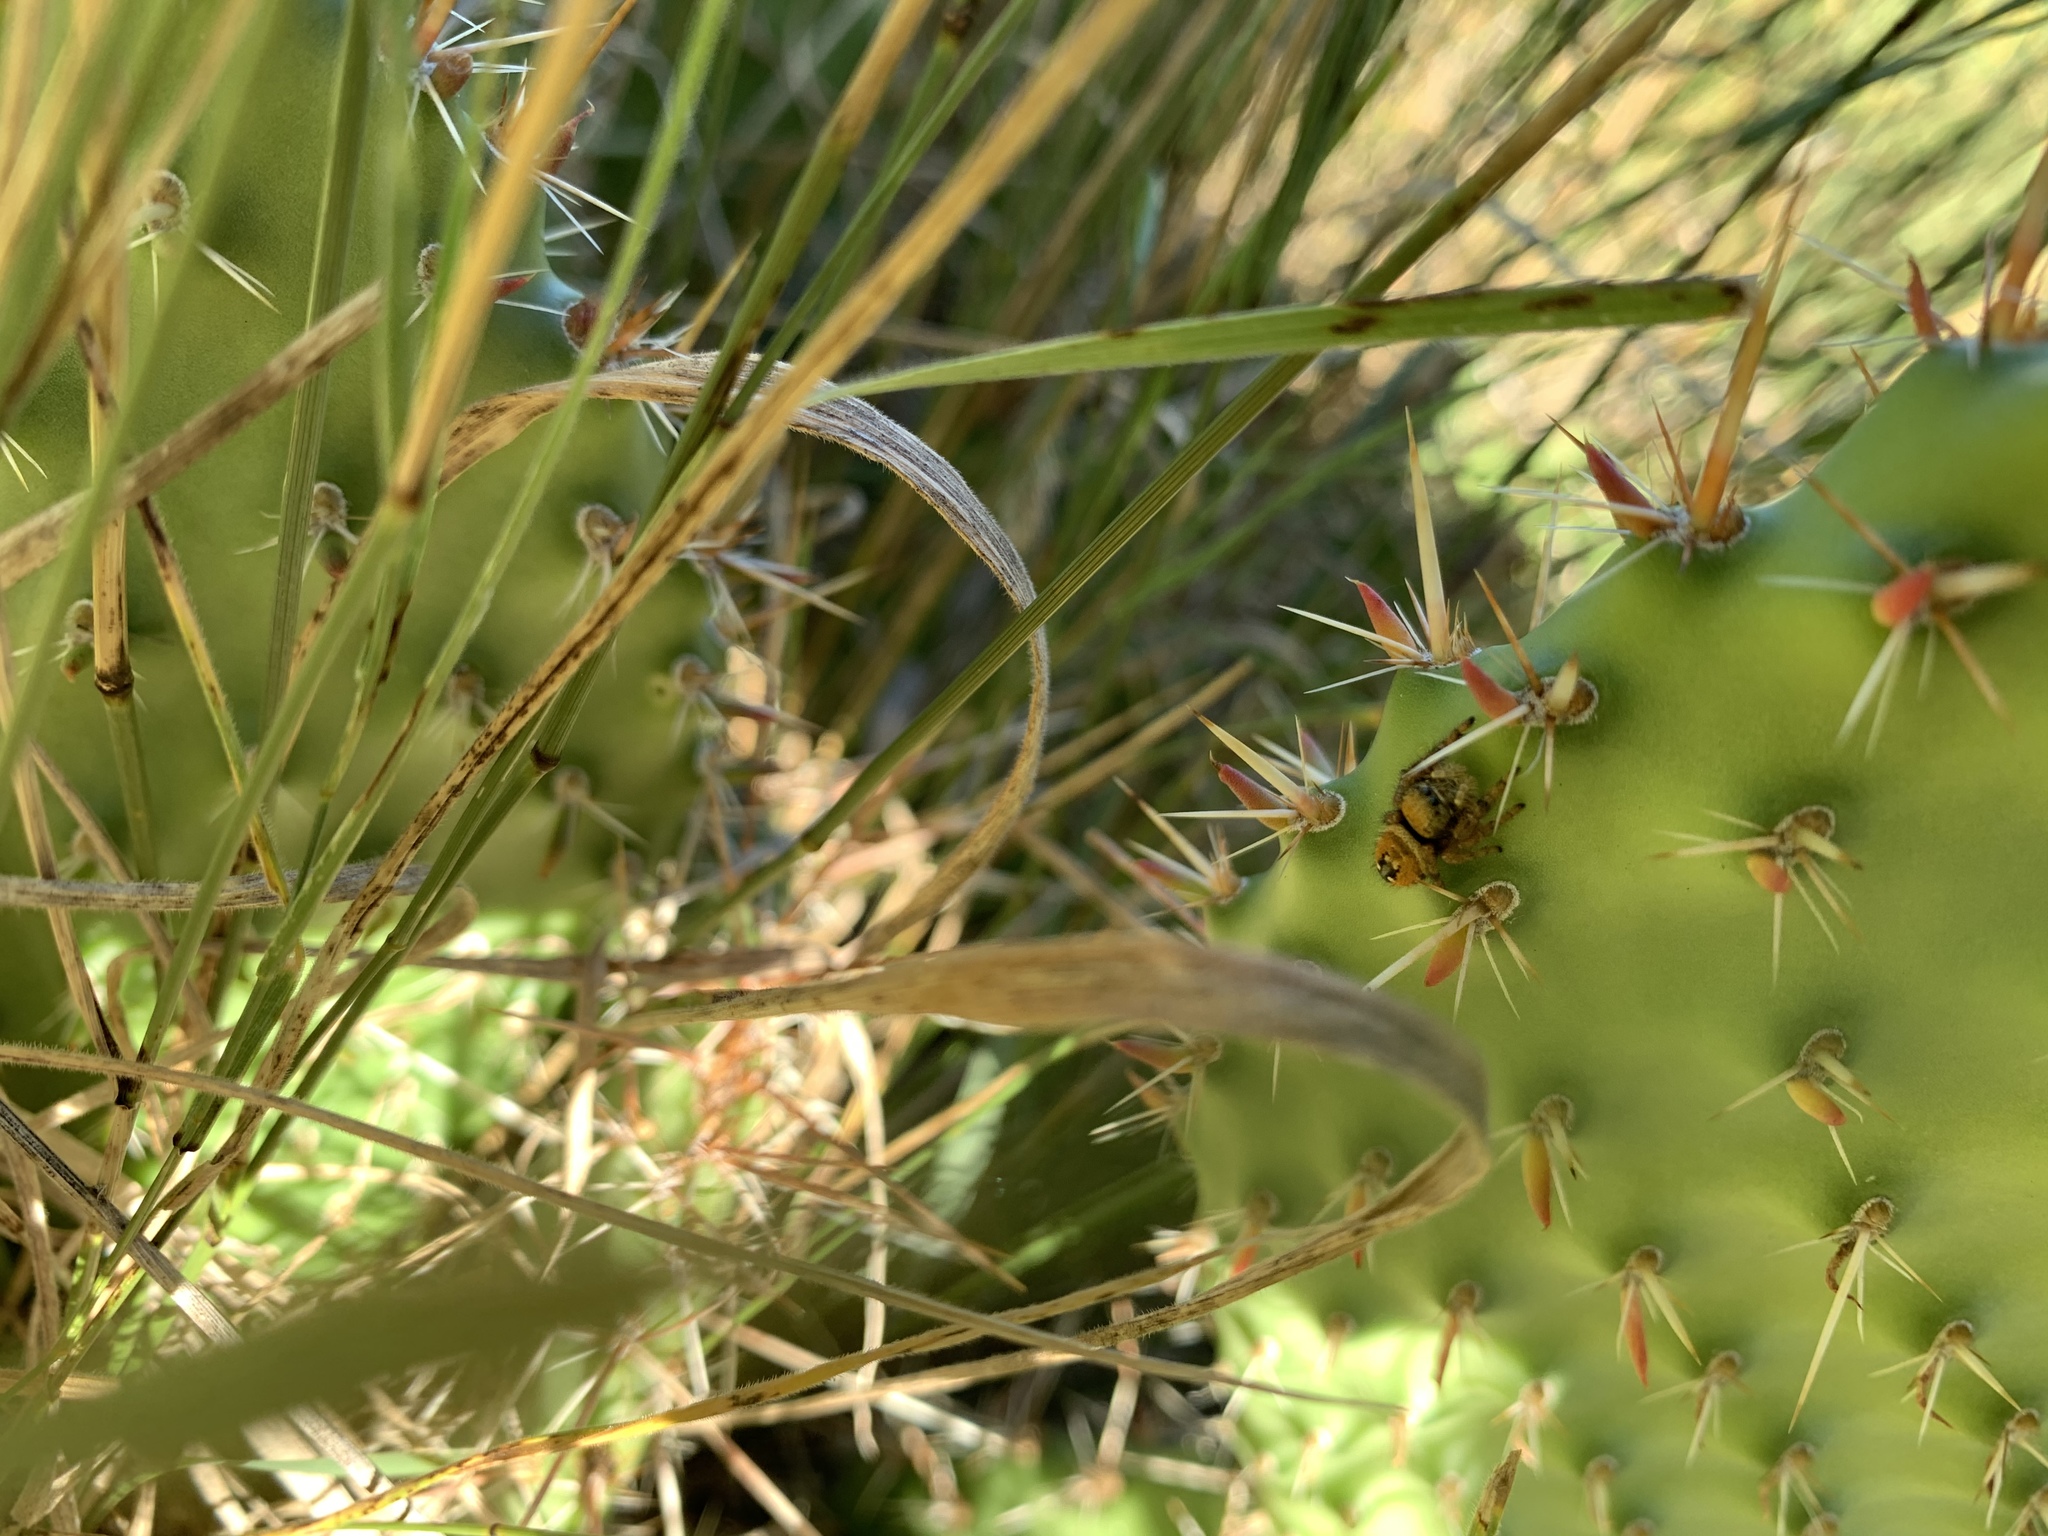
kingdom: Animalia
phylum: Arthropoda
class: Arachnida
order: Araneae
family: Salticidae
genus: Phidippus
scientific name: Phidippus apacheanus
